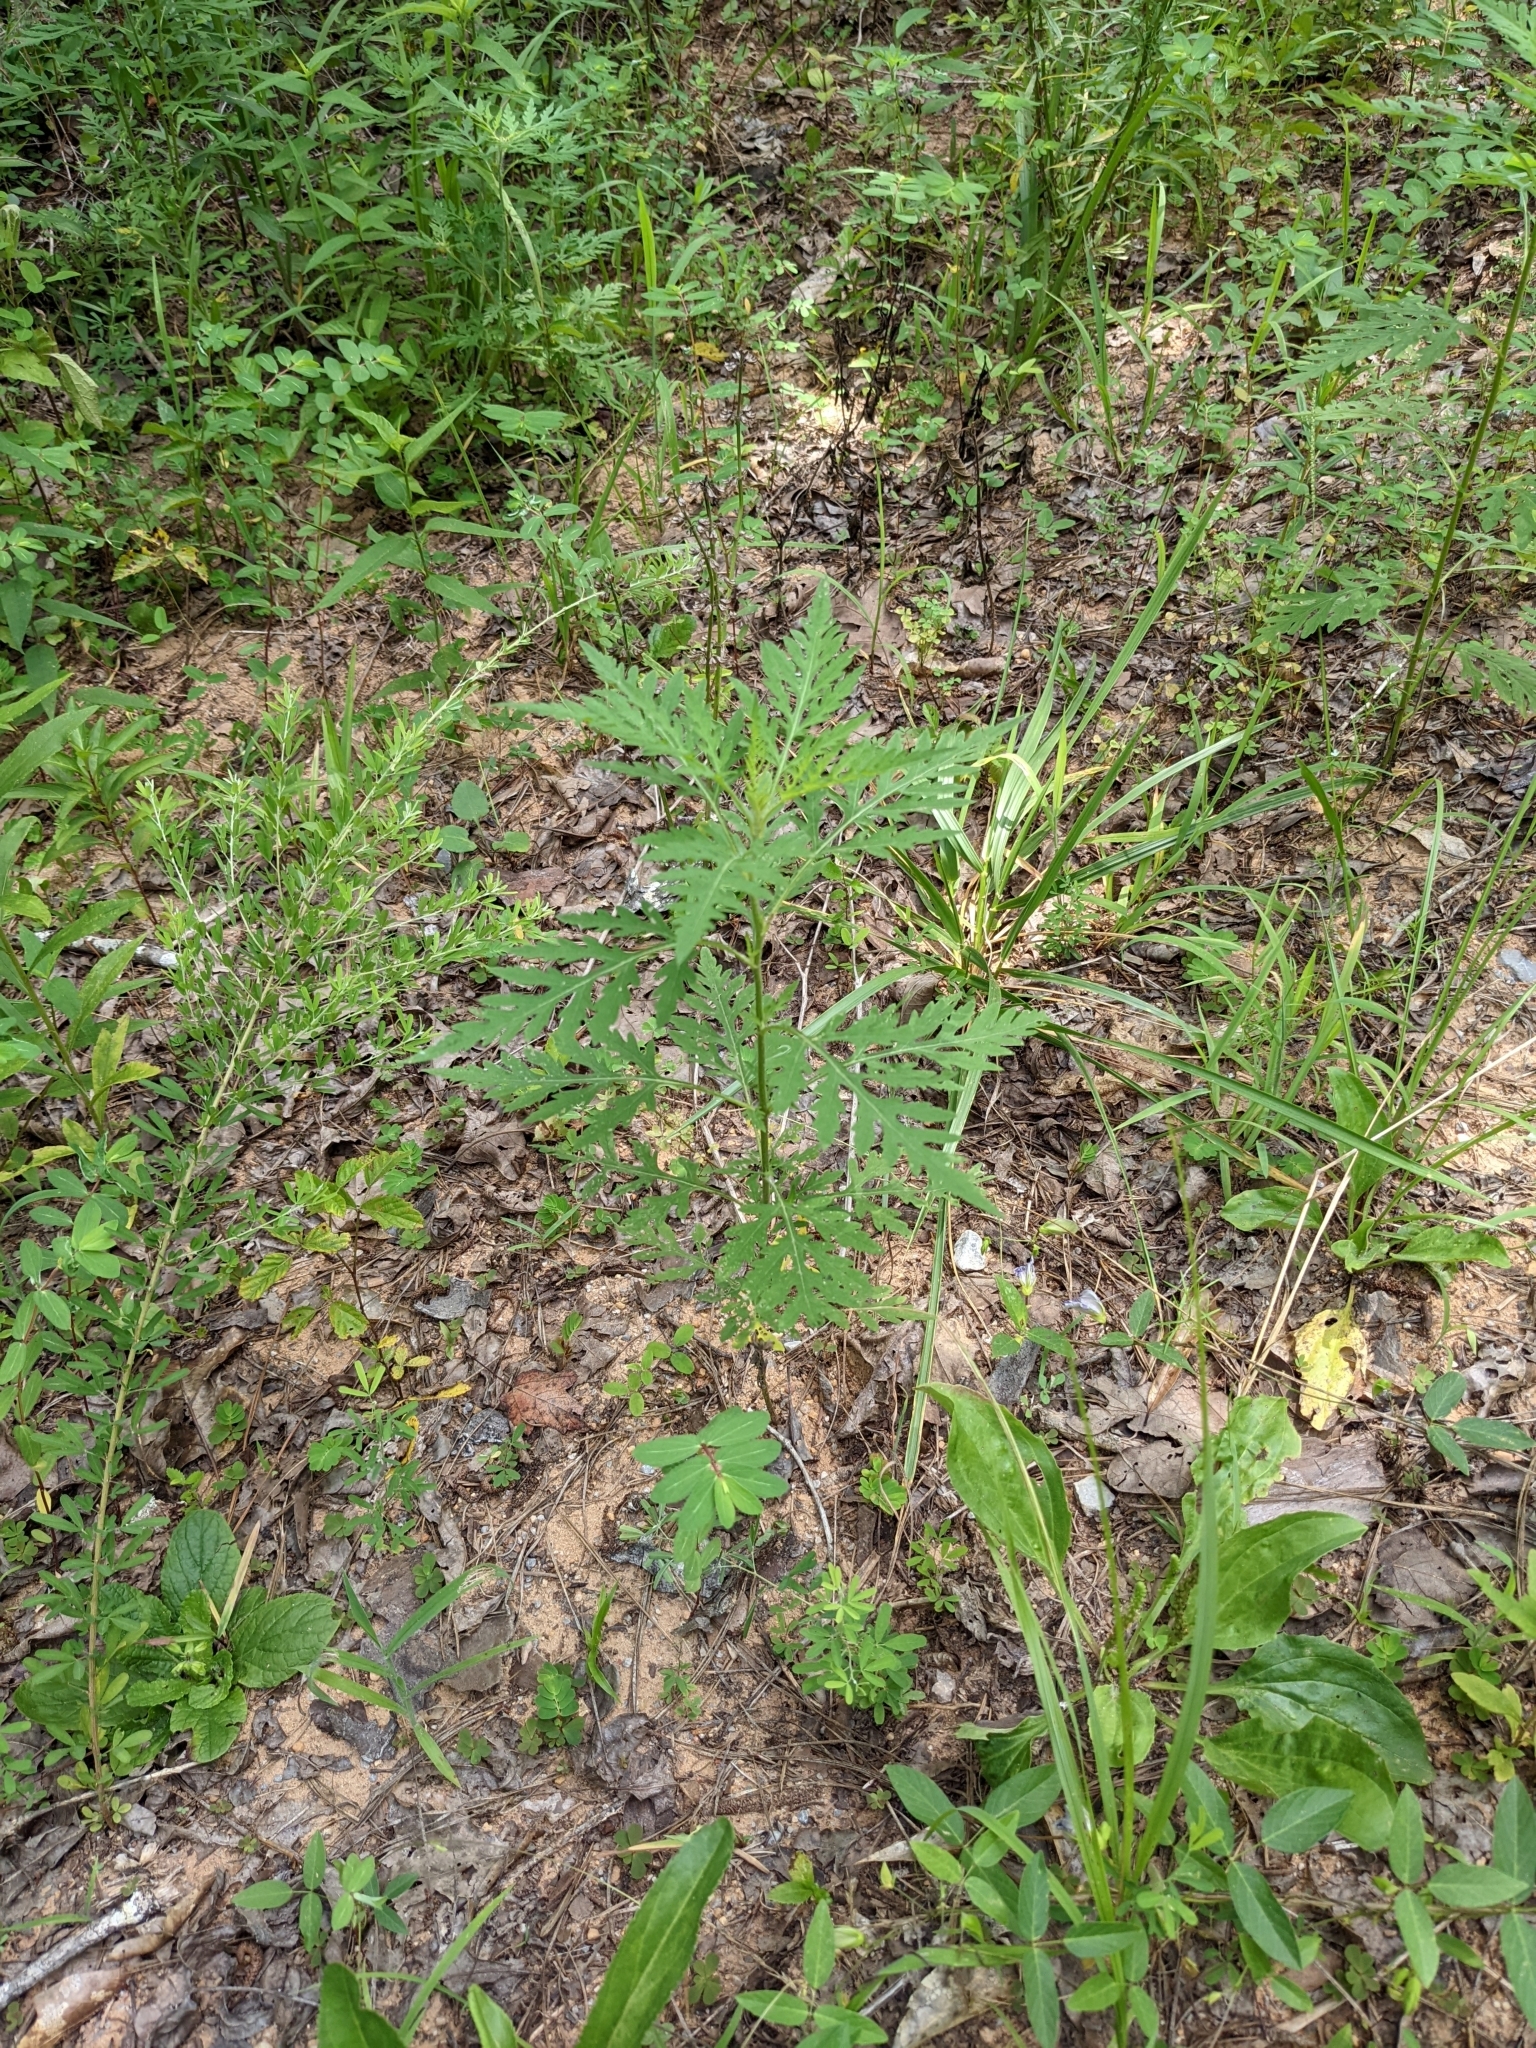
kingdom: Plantae
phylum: Tracheophyta
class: Magnoliopsida
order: Asterales
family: Asteraceae
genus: Ambrosia
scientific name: Ambrosia artemisiifolia
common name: Annual ragweed
